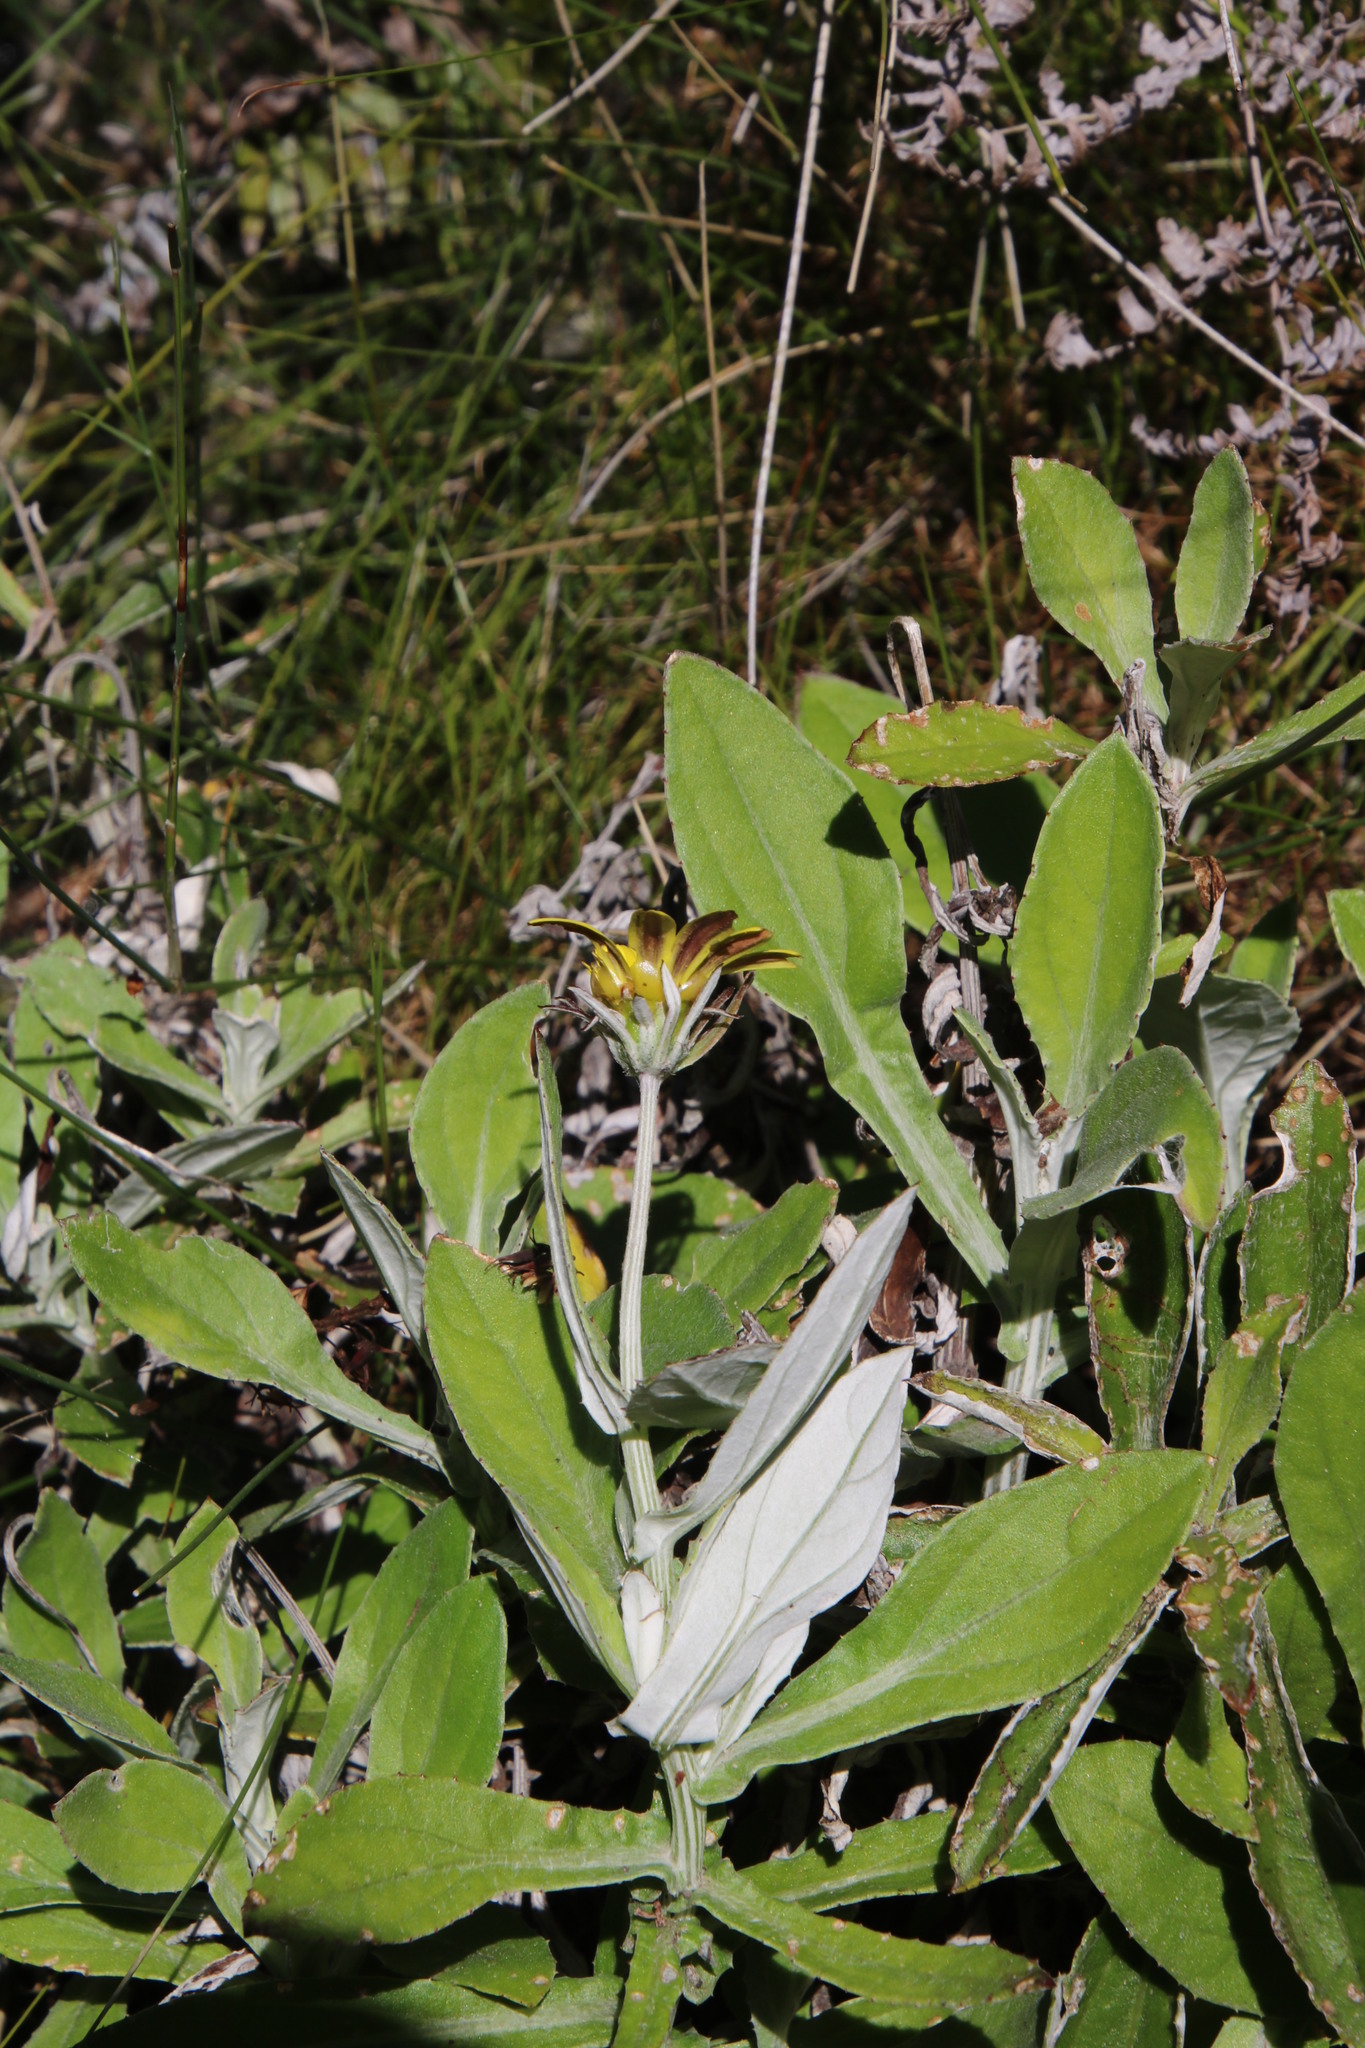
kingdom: Plantae
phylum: Tracheophyta
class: Magnoliopsida
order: Asterales
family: Asteraceae
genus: Arctotis
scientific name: Arctotis scabra
